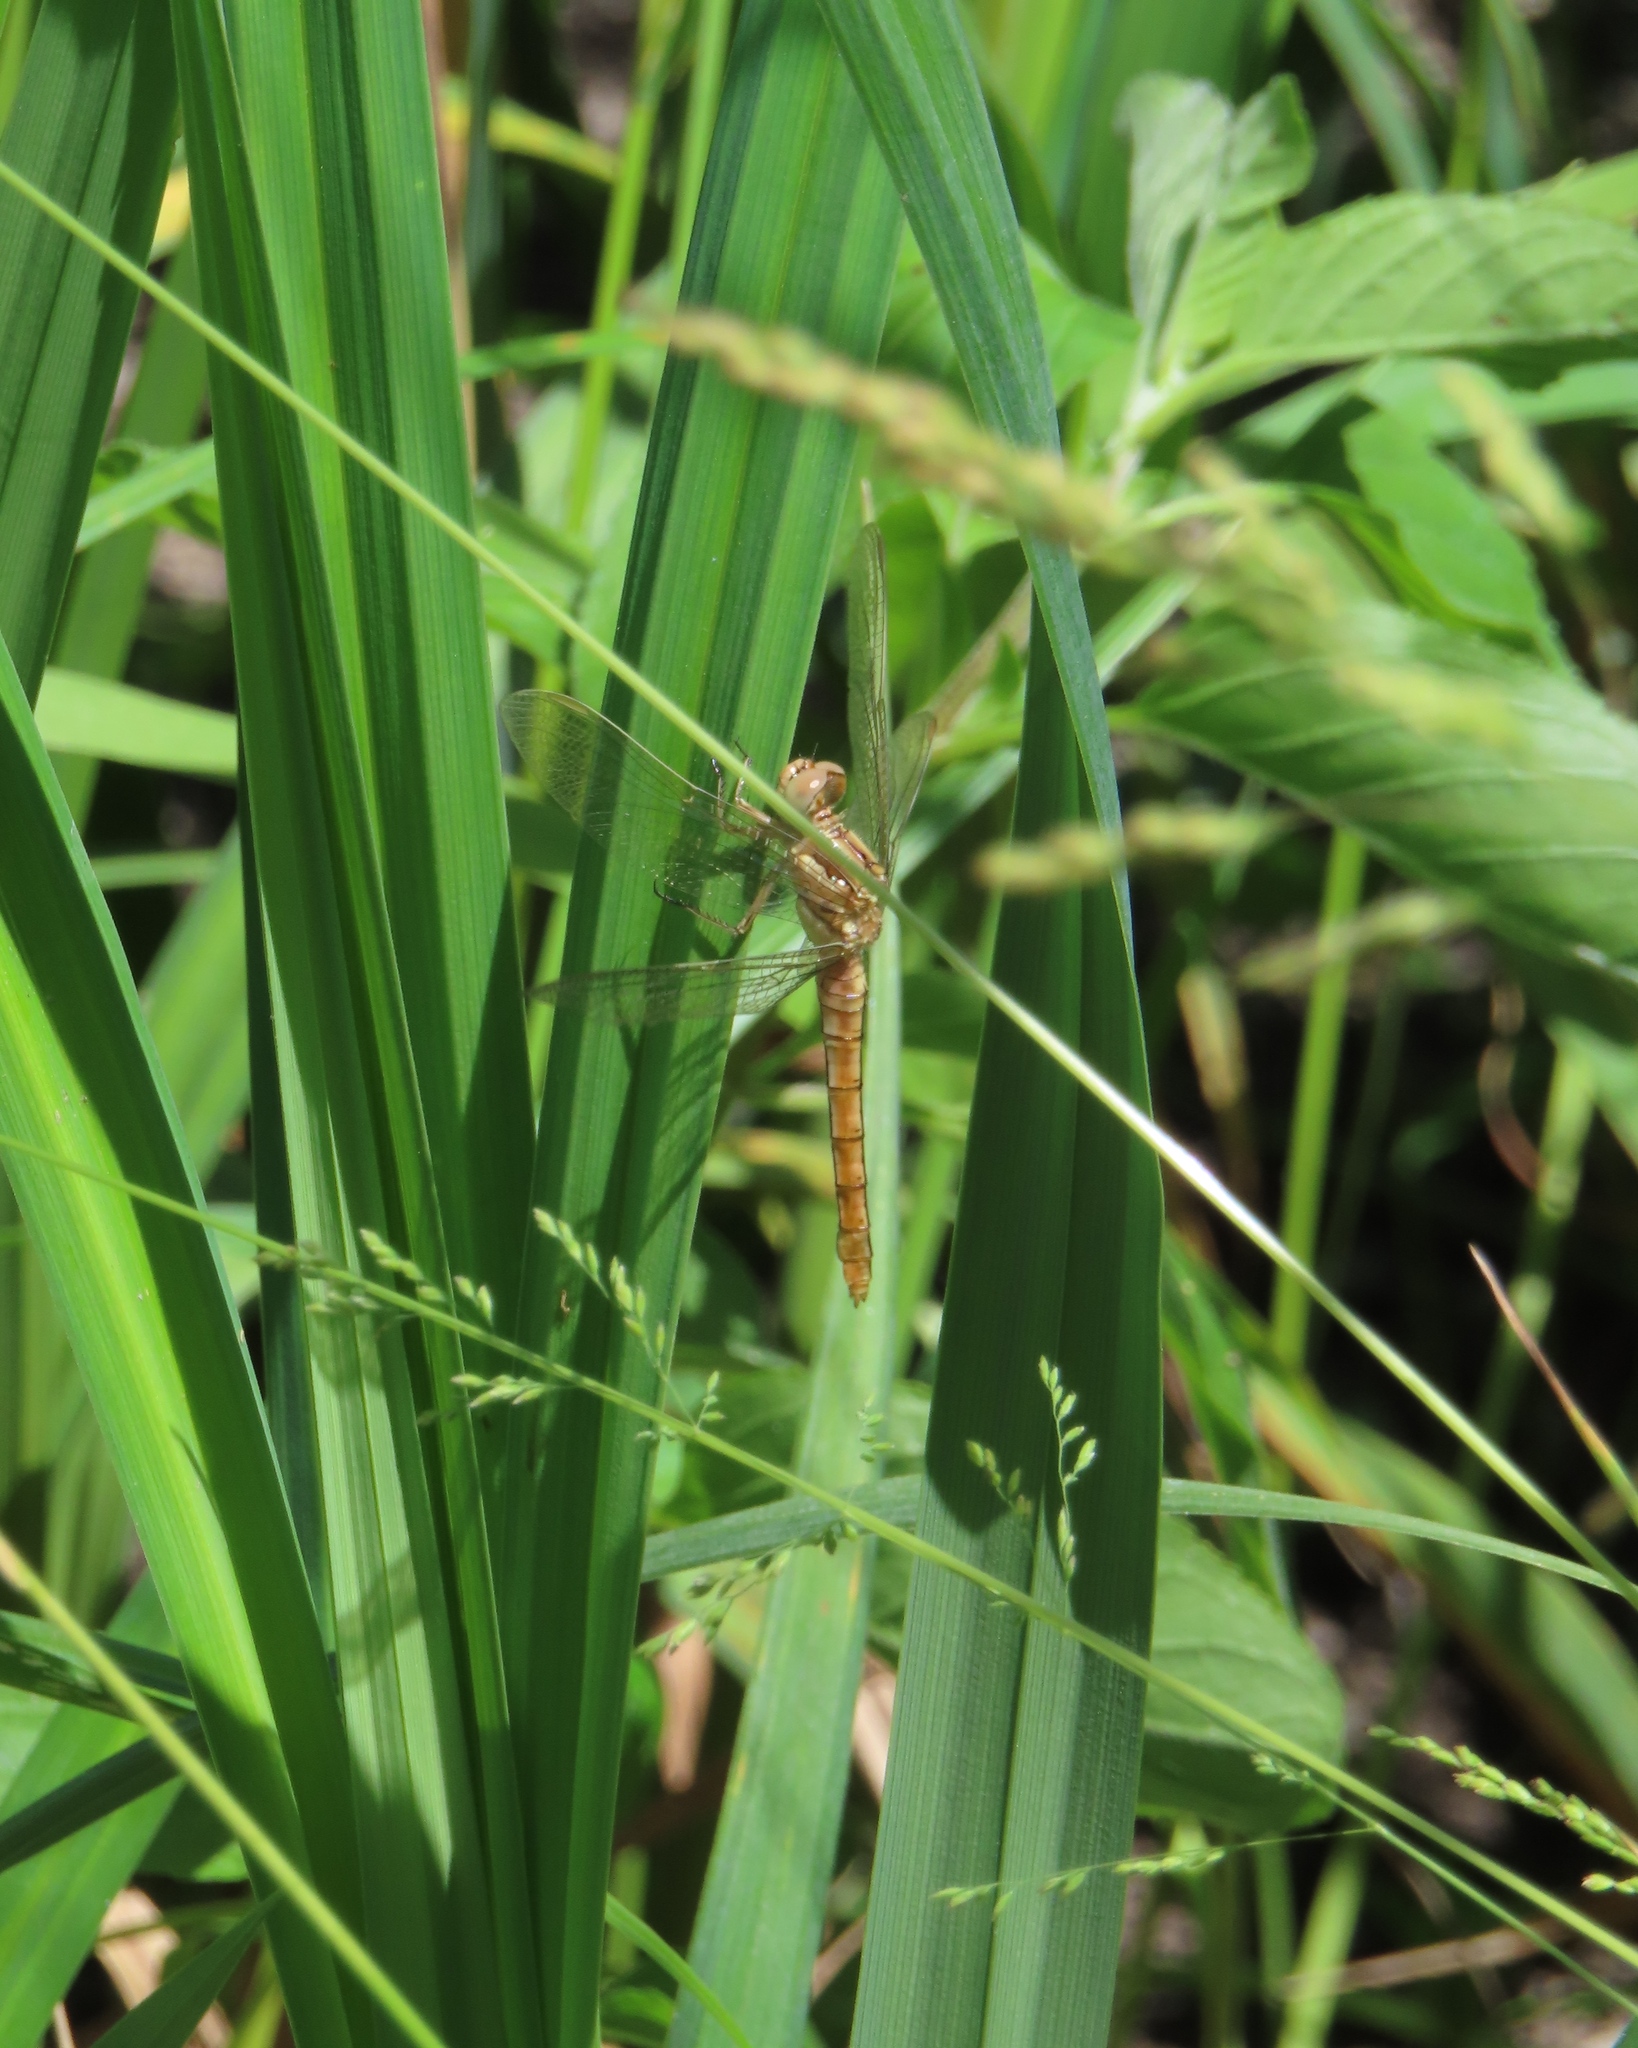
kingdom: Animalia
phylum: Arthropoda
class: Insecta
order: Odonata
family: Libellulidae
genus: Orthetrum
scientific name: Orthetrum brunneum
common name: Southern skimmer
